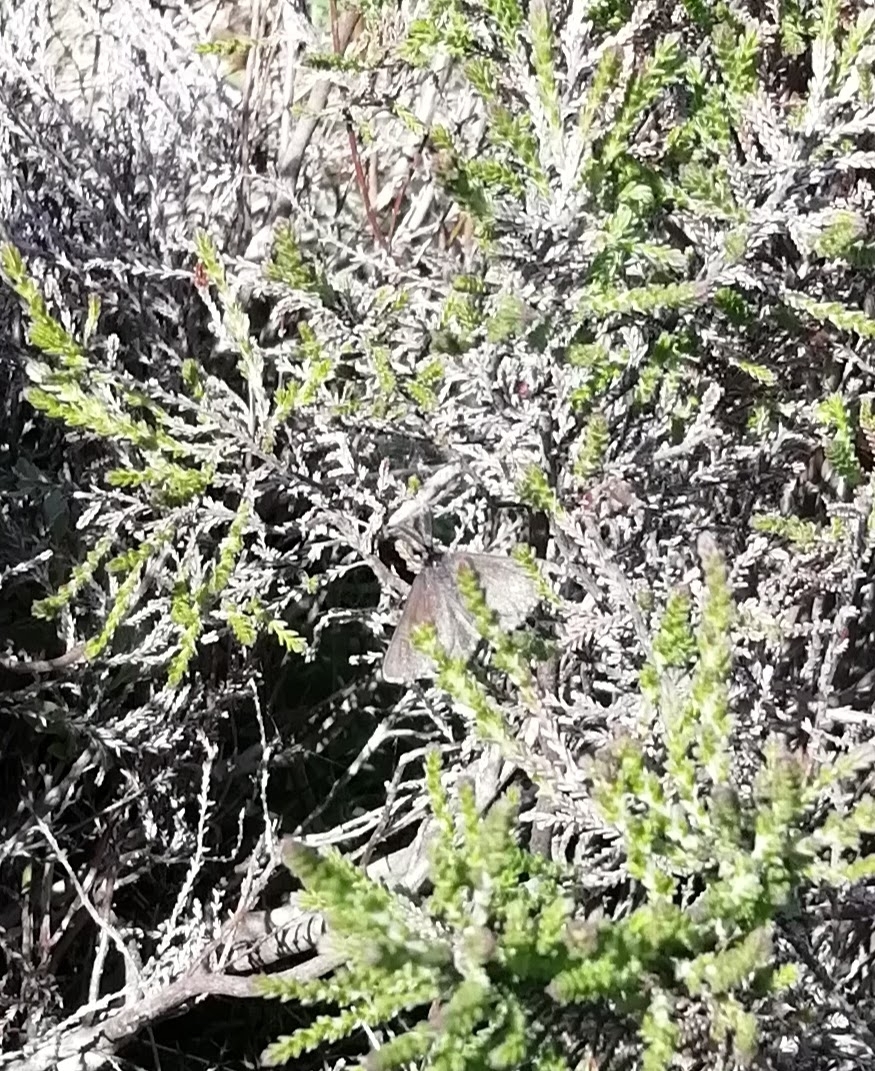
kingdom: Animalia
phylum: Arthropoda
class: Insecta
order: Lepidoptera
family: Geometridae
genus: Odezia
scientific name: Odezia atrata
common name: Chimney sweeper
